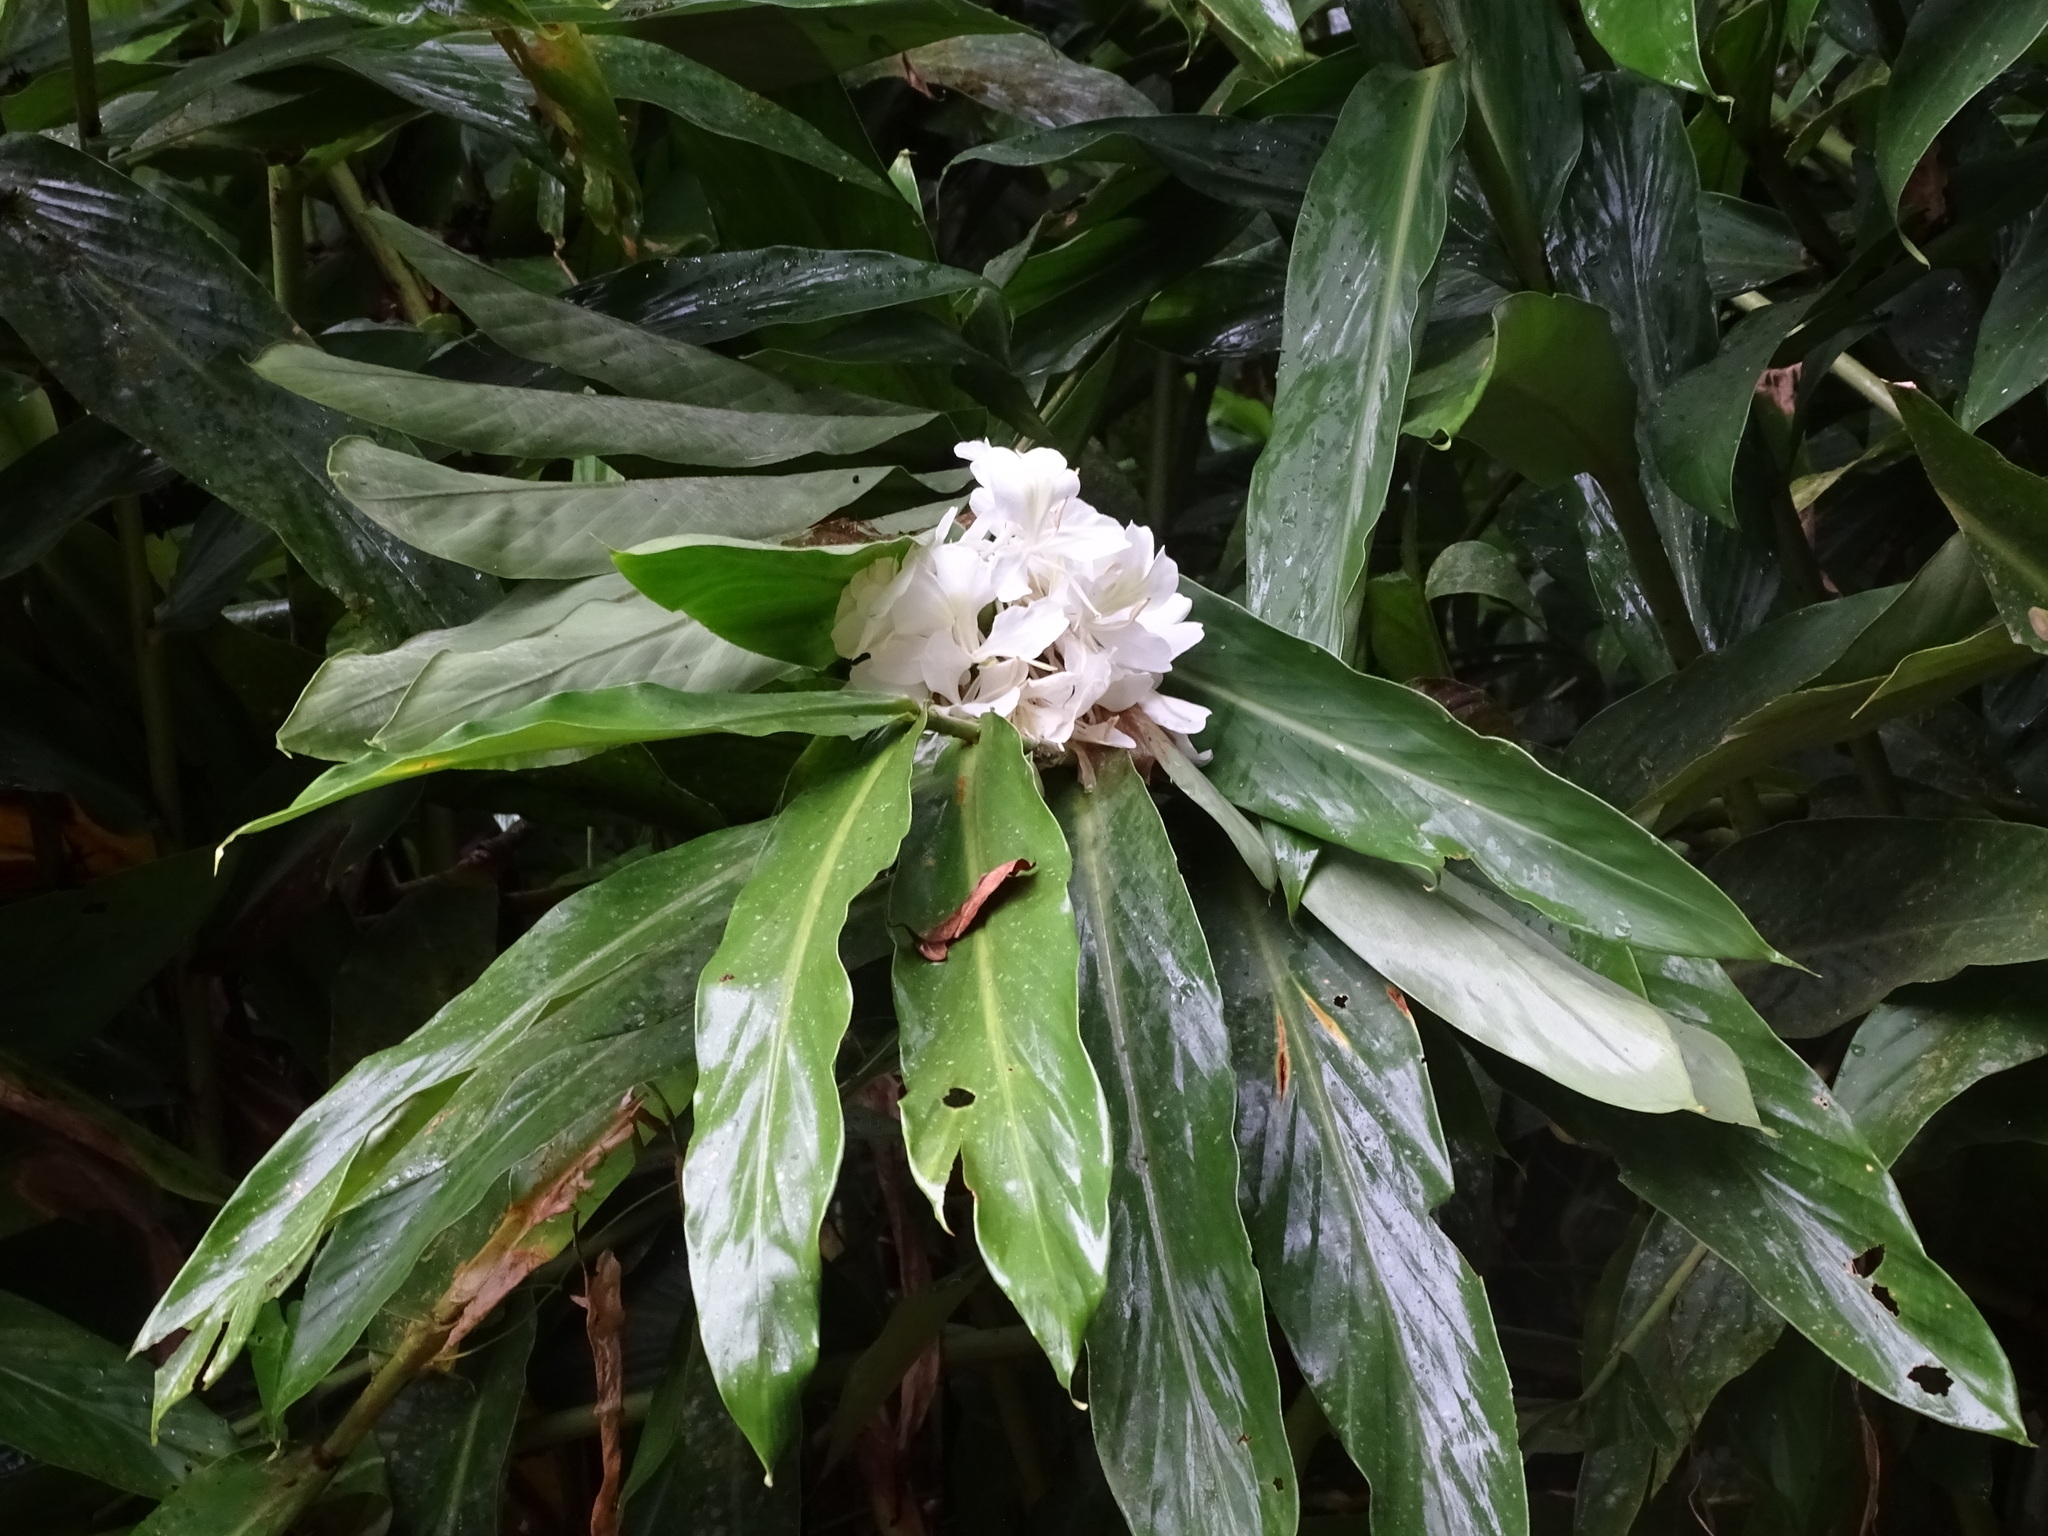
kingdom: Plantae
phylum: Tracheophyta
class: Liliopsida
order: Zingiberales
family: Zingiberaceae
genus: Hedychium
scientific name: Hedychium coronarium
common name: White garland-lily
